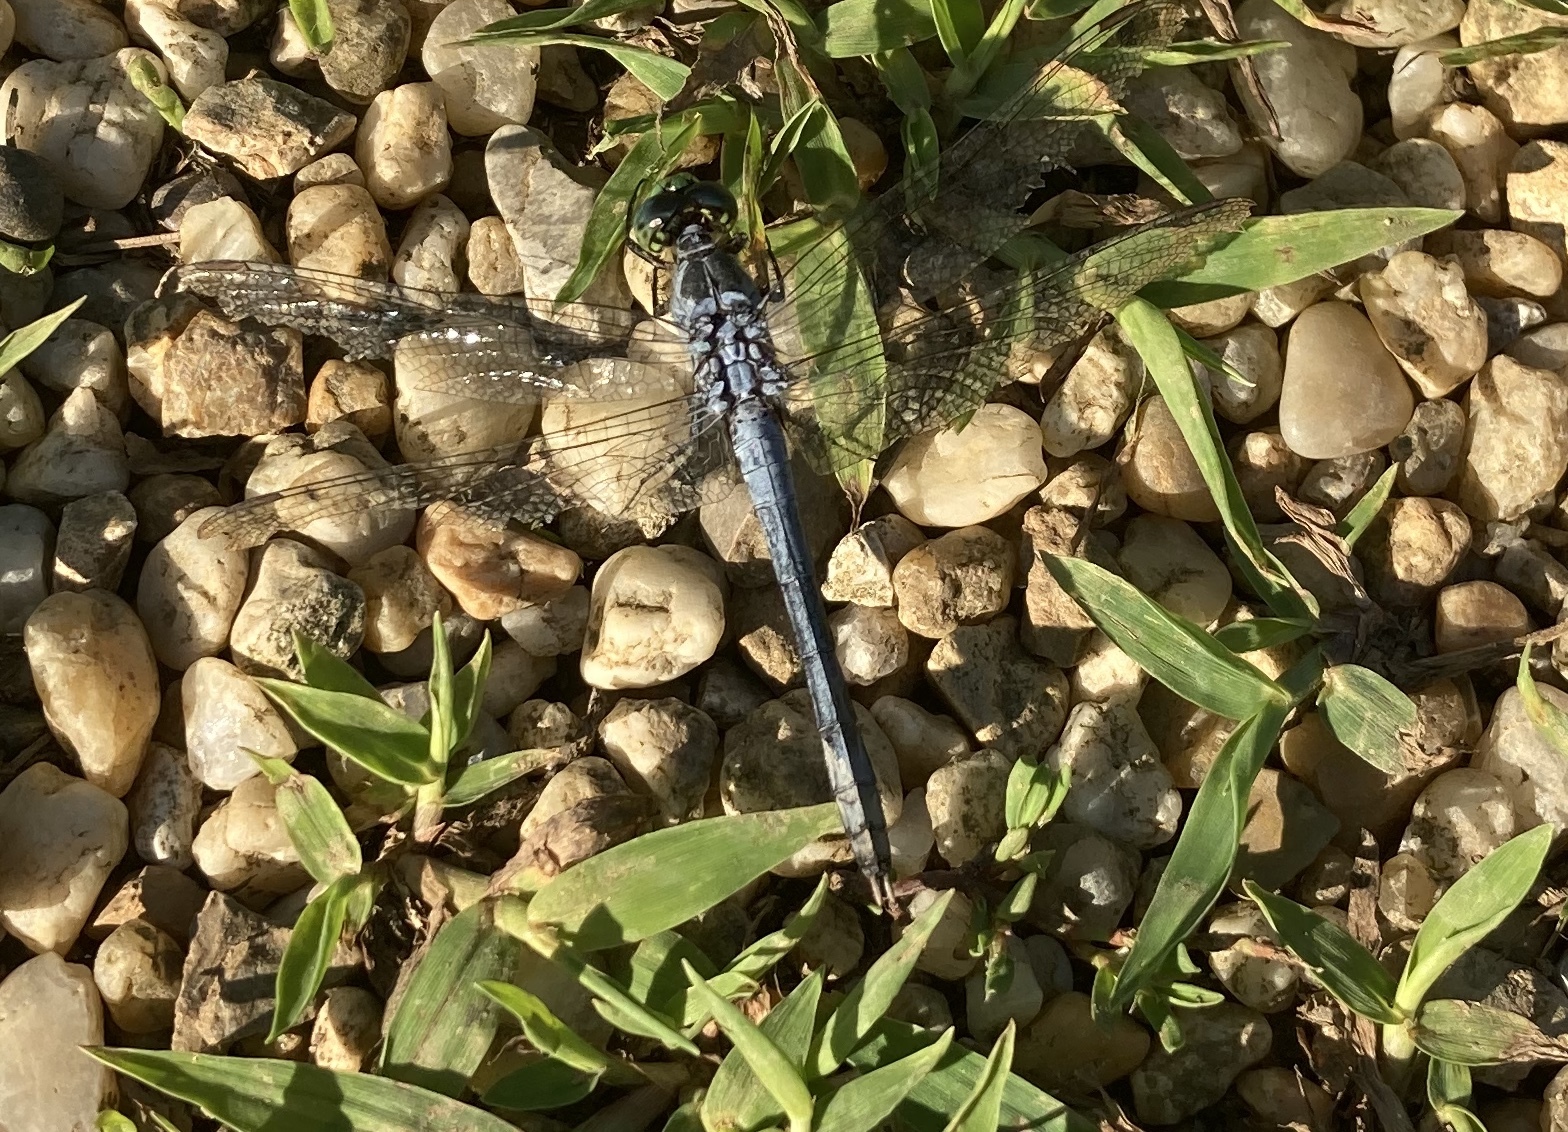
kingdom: Animalia
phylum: Arthropoda
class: Insecta
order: Odonata
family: Libellulidae
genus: Erythemis
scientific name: Erythemis simplicicollis
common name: Eastern pondhawk
